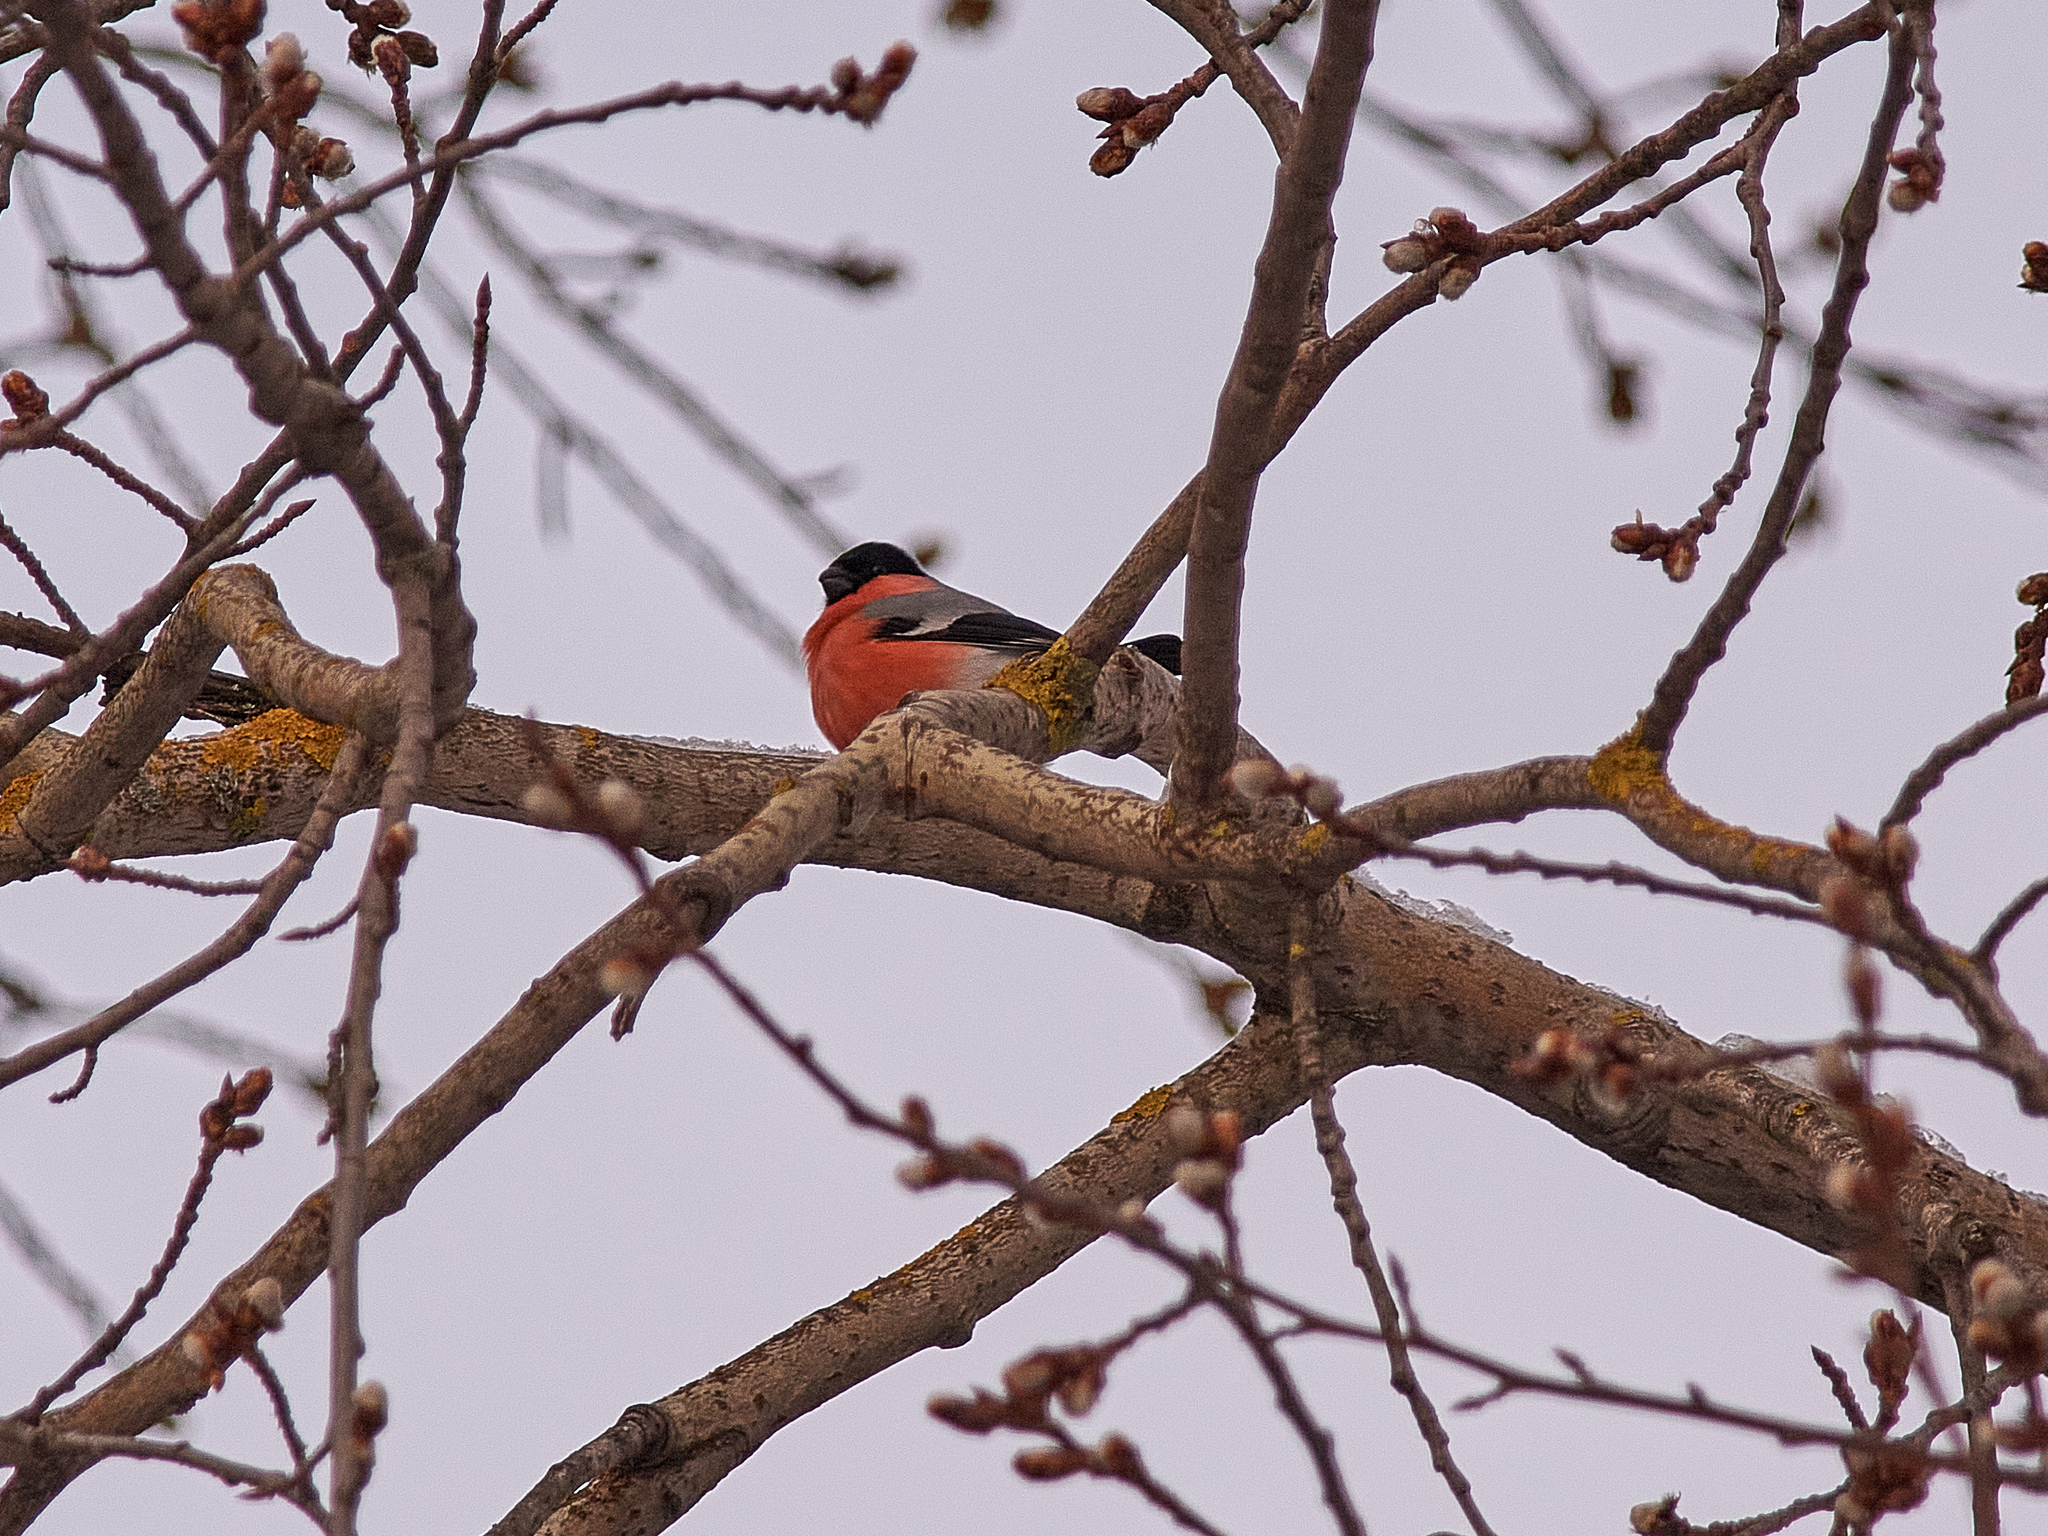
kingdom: Animalia
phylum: Chordata
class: Aves
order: Passeriformes
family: Fringillidae
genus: Pyrrhula
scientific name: Pyrrhula pyrrhula
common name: Eurasian bullfinch
